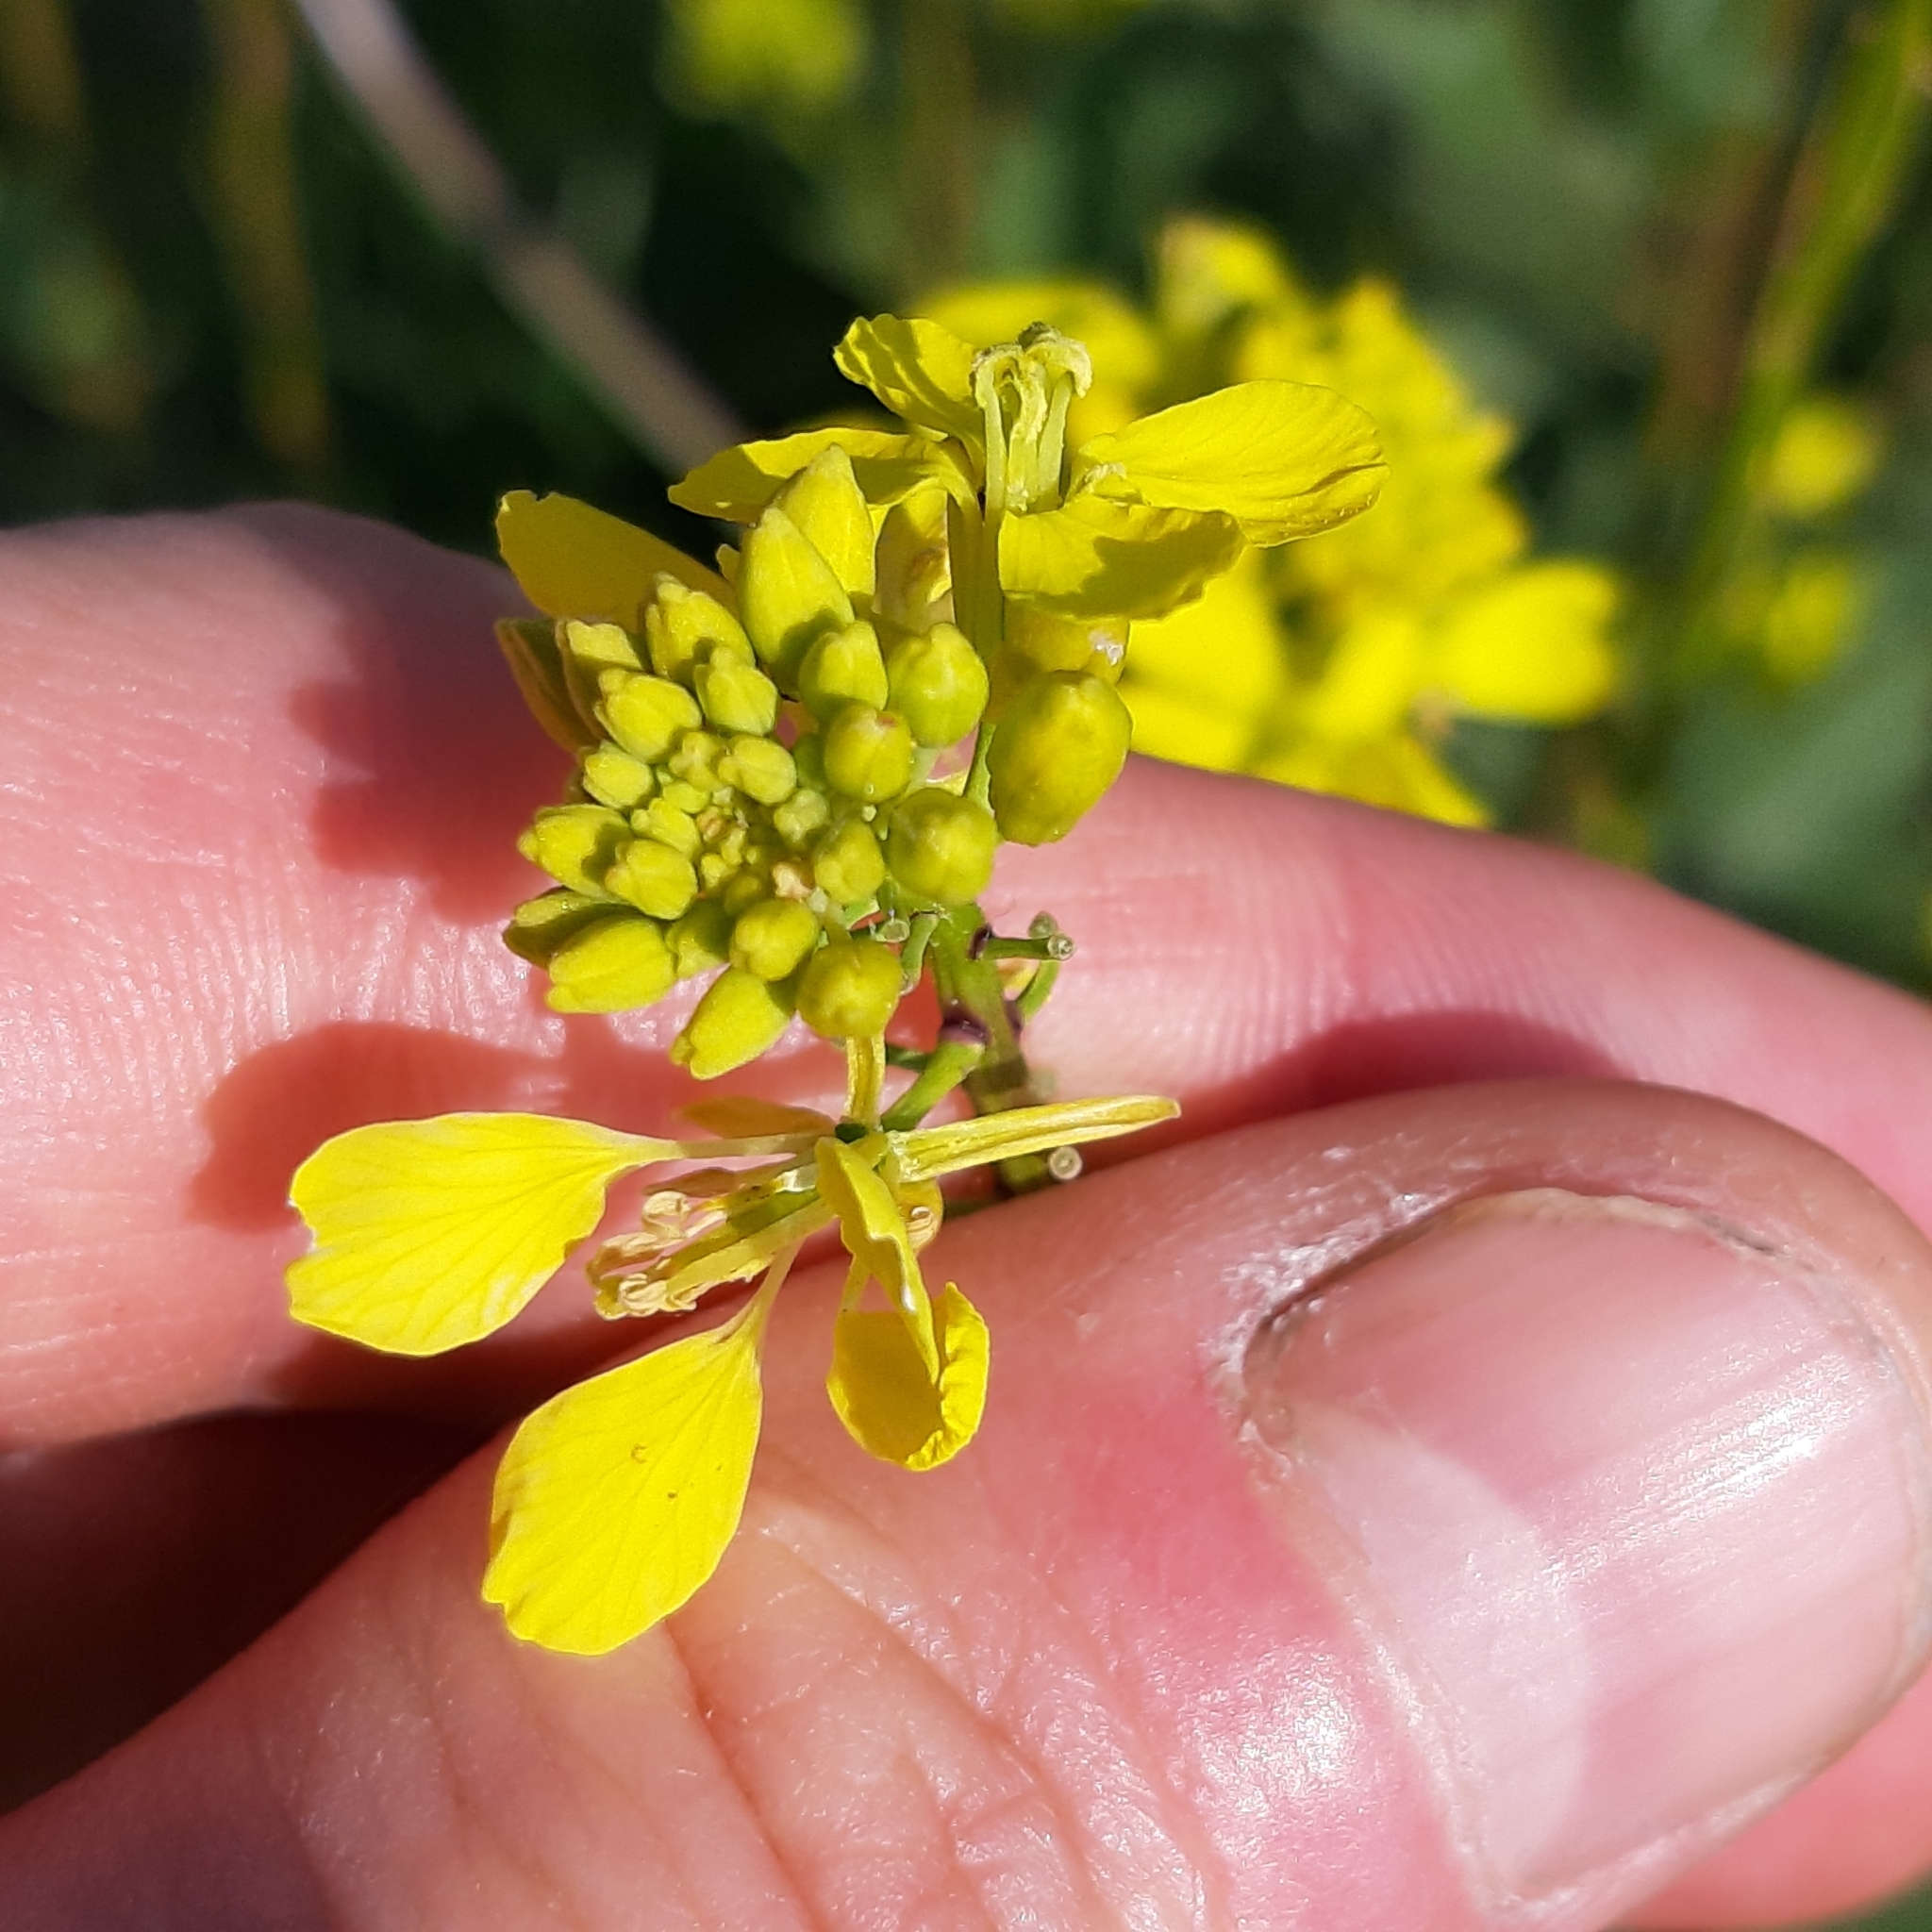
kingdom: Plantae
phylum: Tracheophyta
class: Magnoliopsida
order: Brassicales
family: Brassicaceae
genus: Sinapis
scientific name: Sinapis arvensis
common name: Charlock
